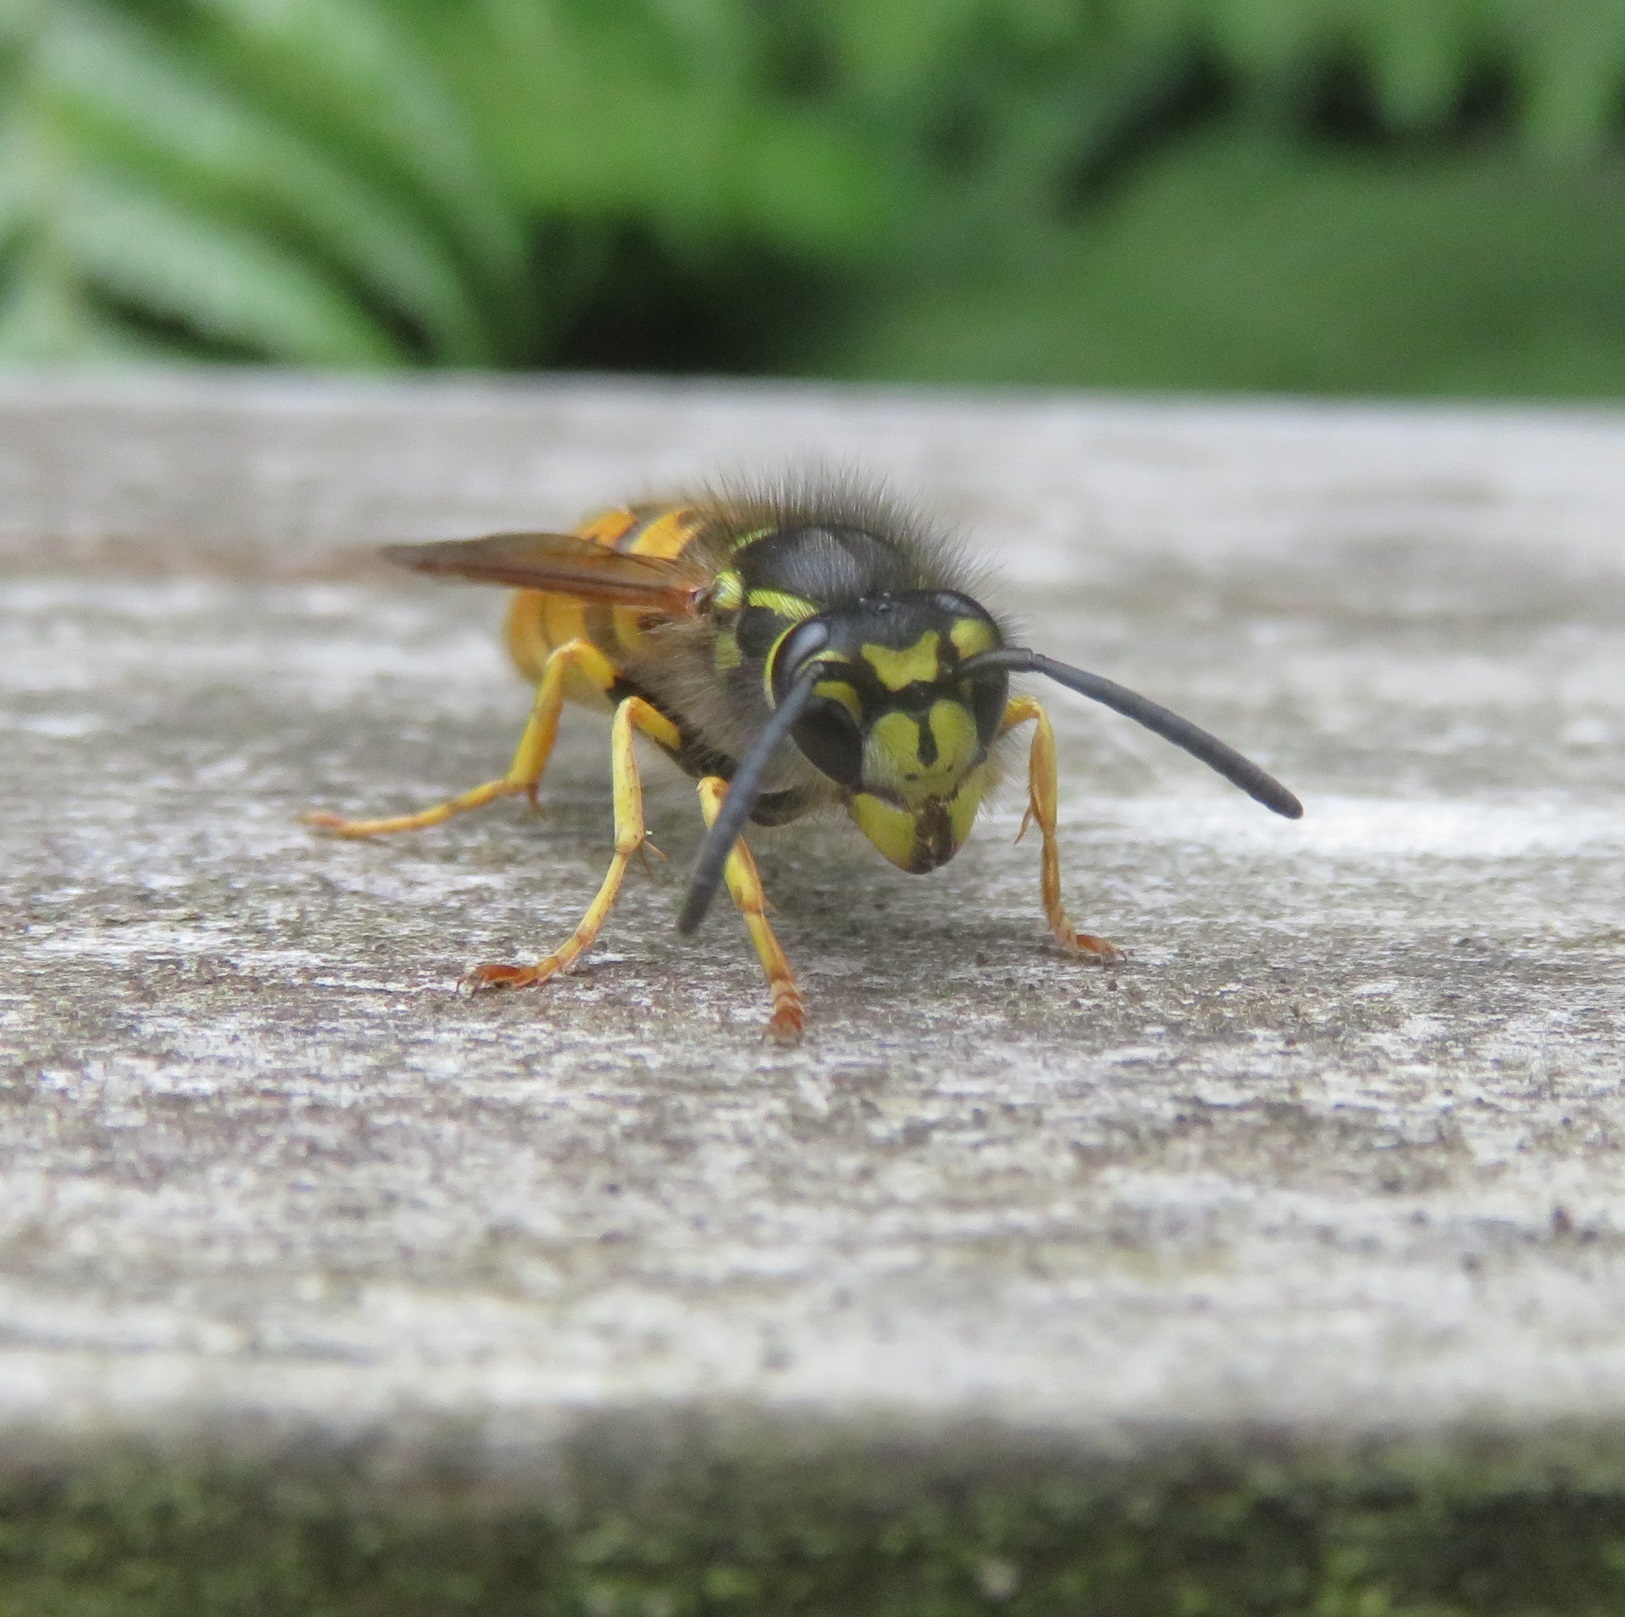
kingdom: Animalia
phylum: Arthropoda
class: Insecta
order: Hymenoptera
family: Vespidae
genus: Vespula
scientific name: Vespula germanica
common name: German wasp
